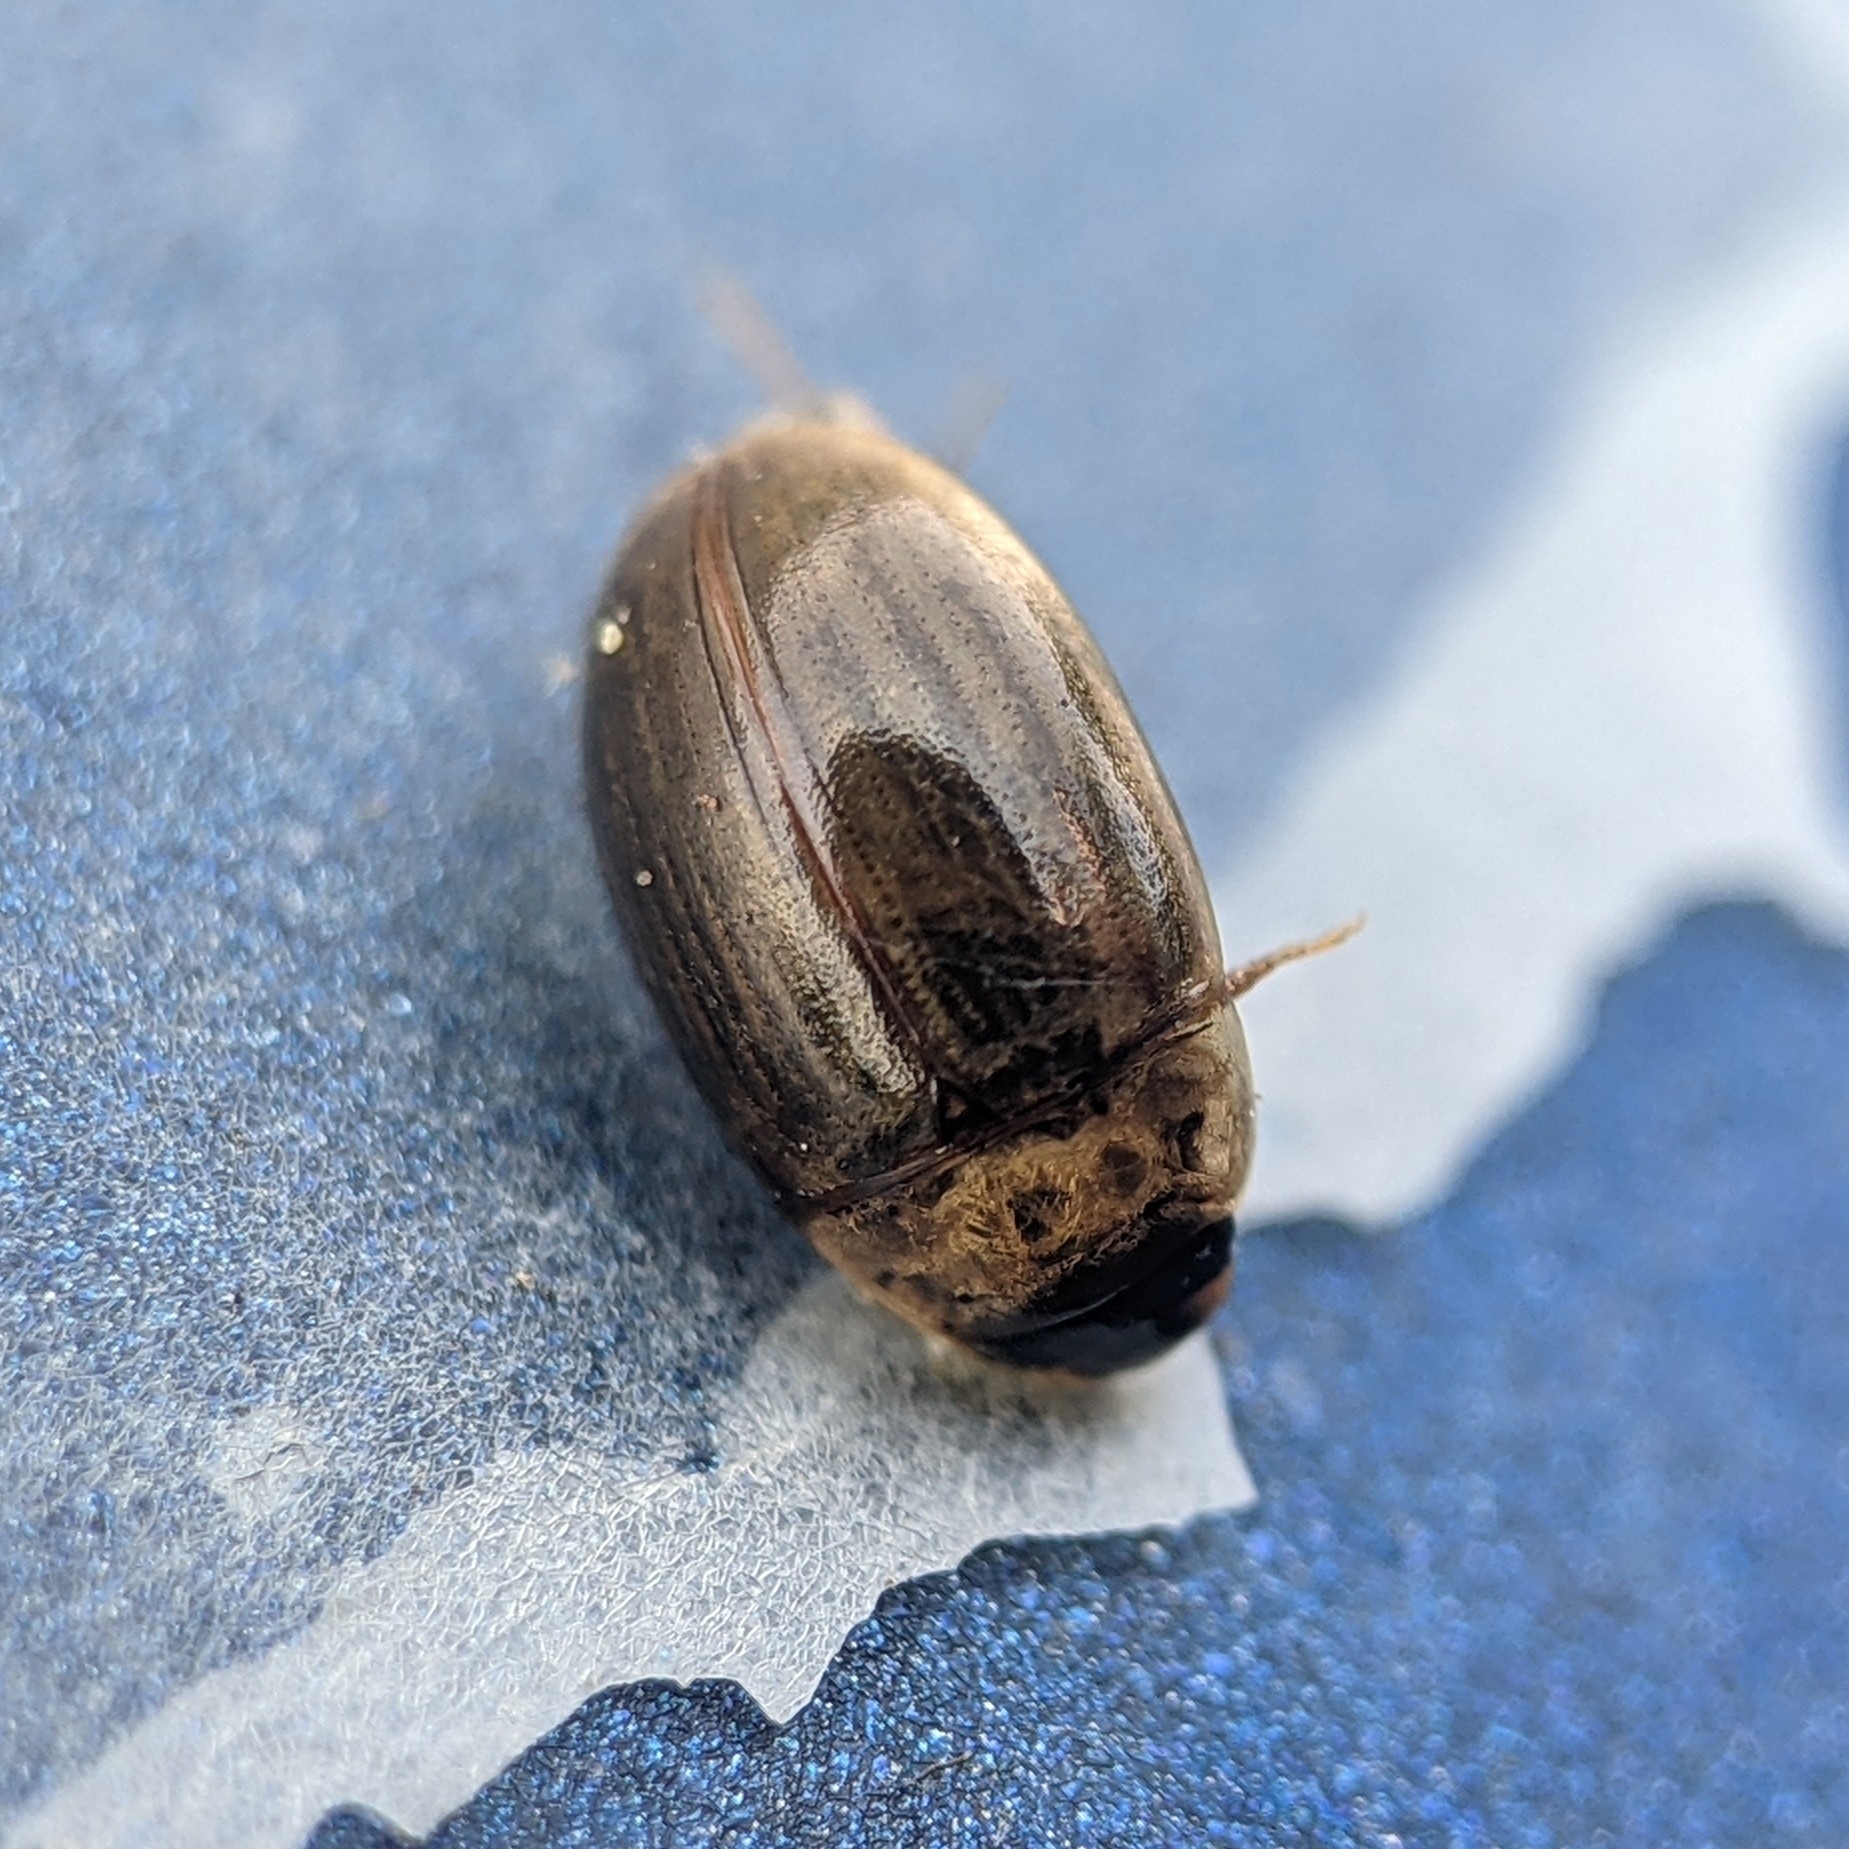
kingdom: Animalia
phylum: Arthropoda
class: Insecta
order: Coleoptera
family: Hydrophilidae
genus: Enochrus
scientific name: Enochrus
